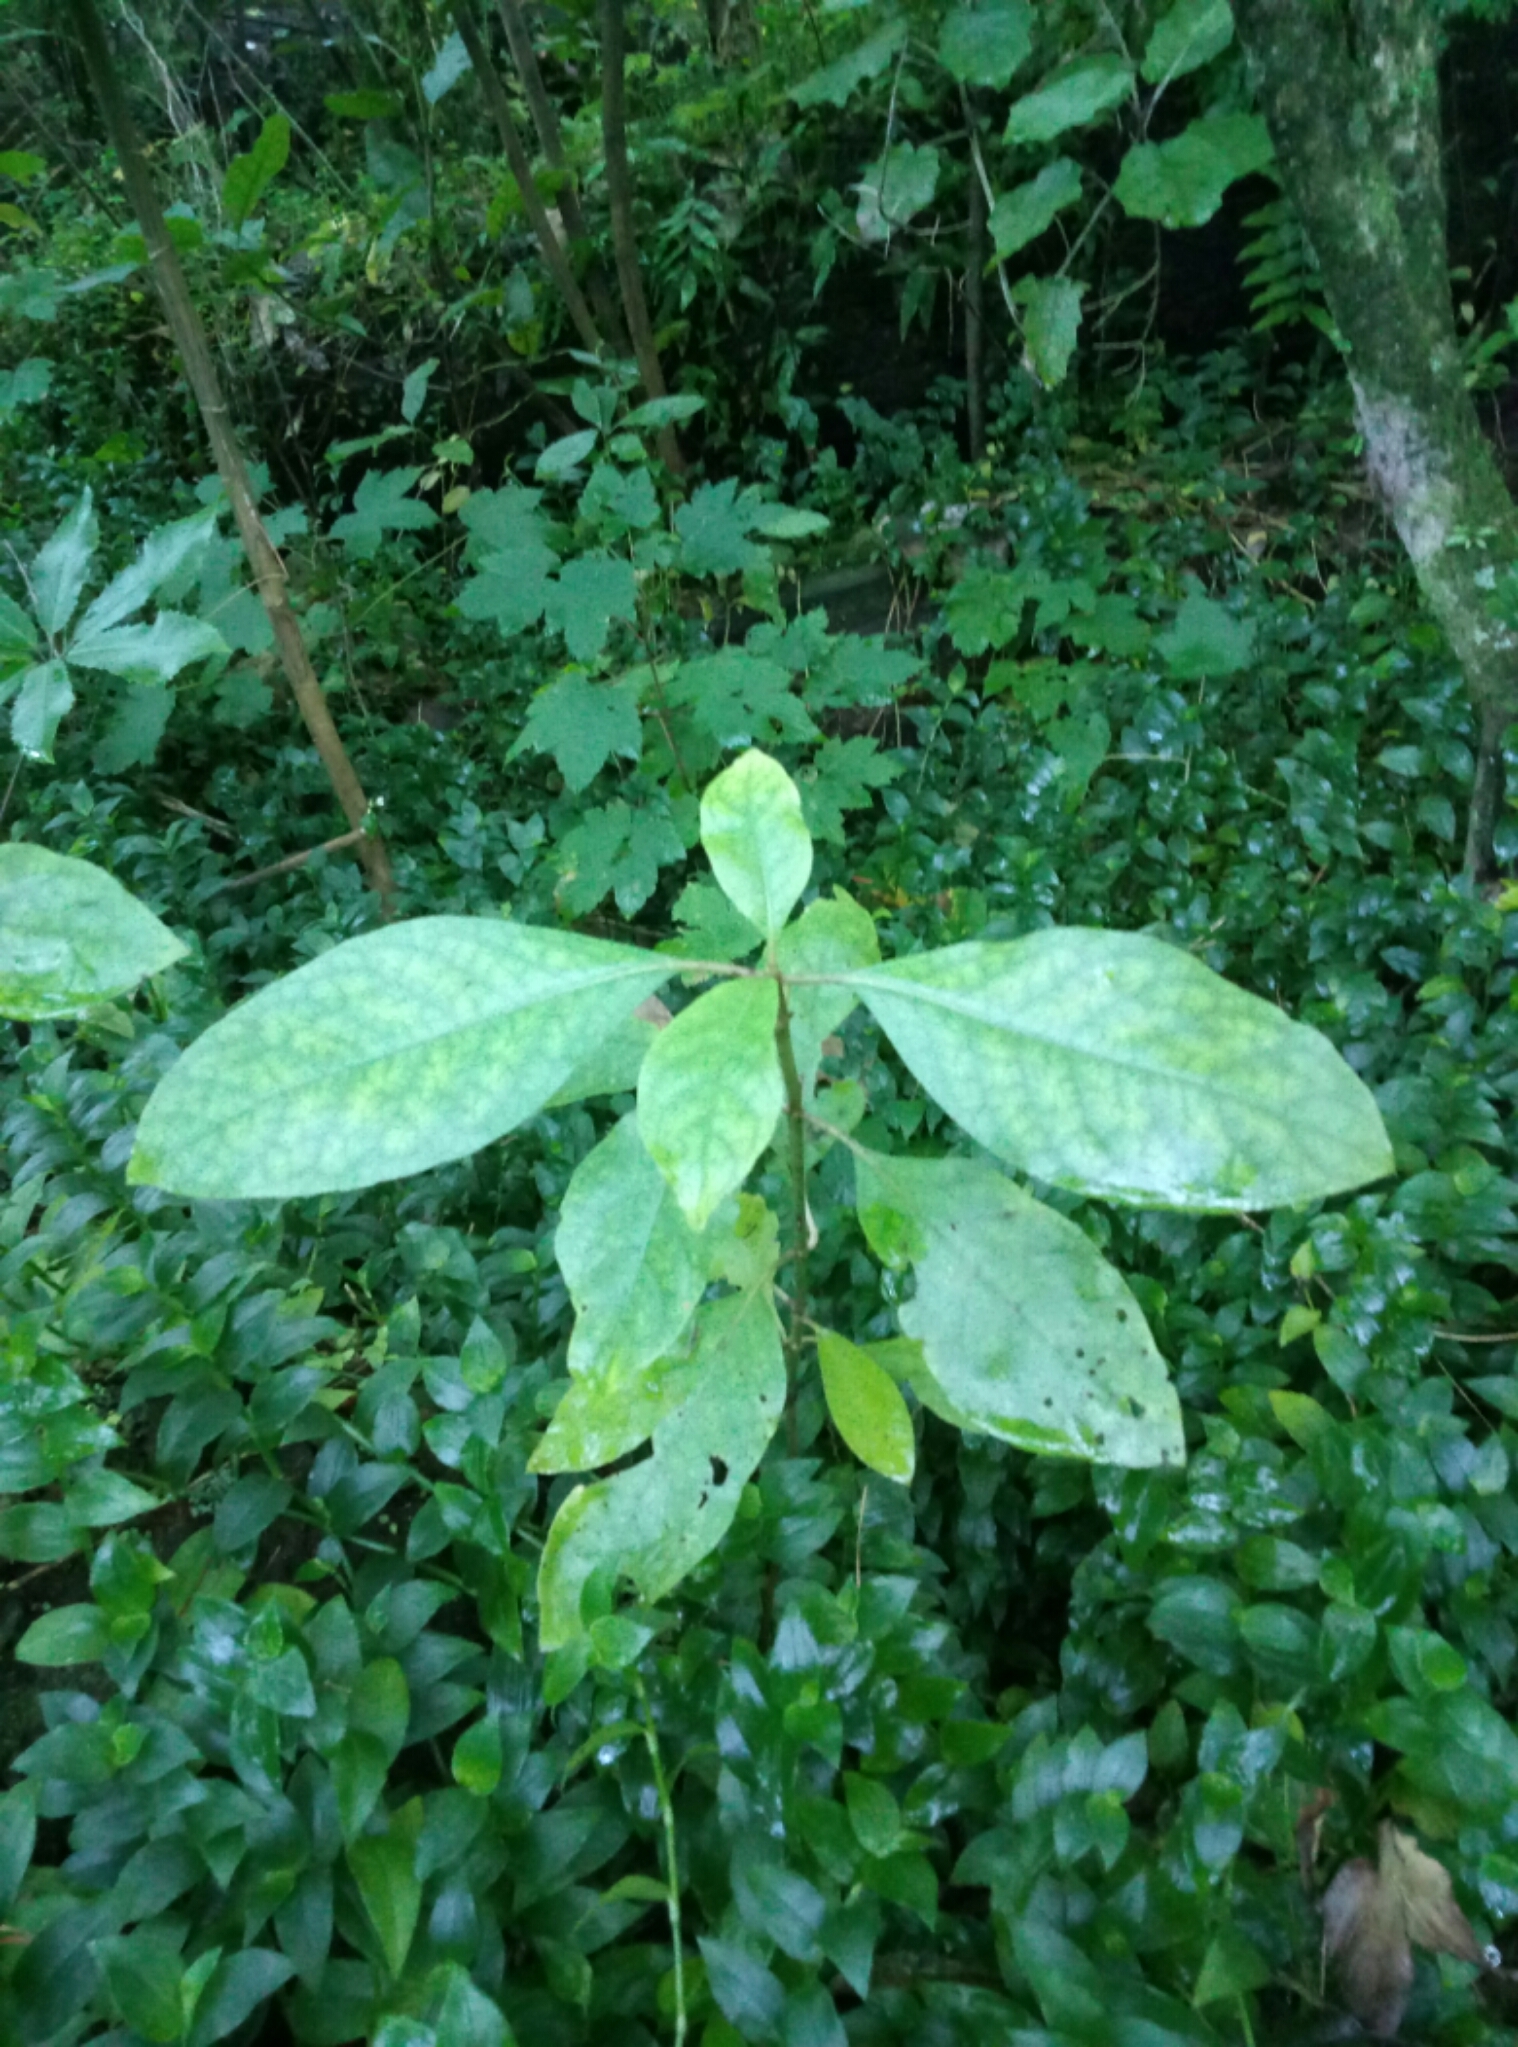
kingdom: Plantae
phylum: Tracheophyta
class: Magnoliopsida
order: Gentianales
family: Rubiaceae
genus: Coprosma
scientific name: Coprosma autumnalis
